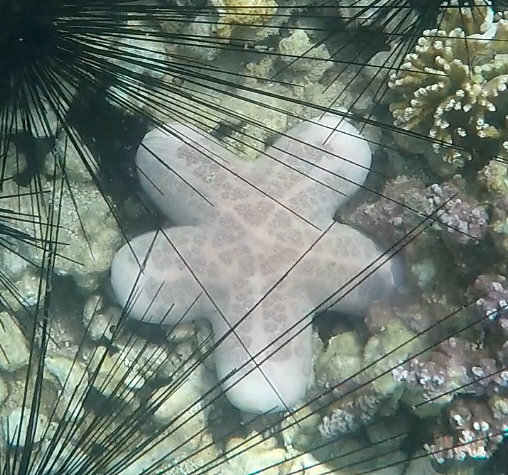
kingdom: Animalia
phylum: Echinodermata
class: Asteroidea
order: Valvatida
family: Oreasteridae
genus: Choriaster
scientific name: Choriaster granulatus
